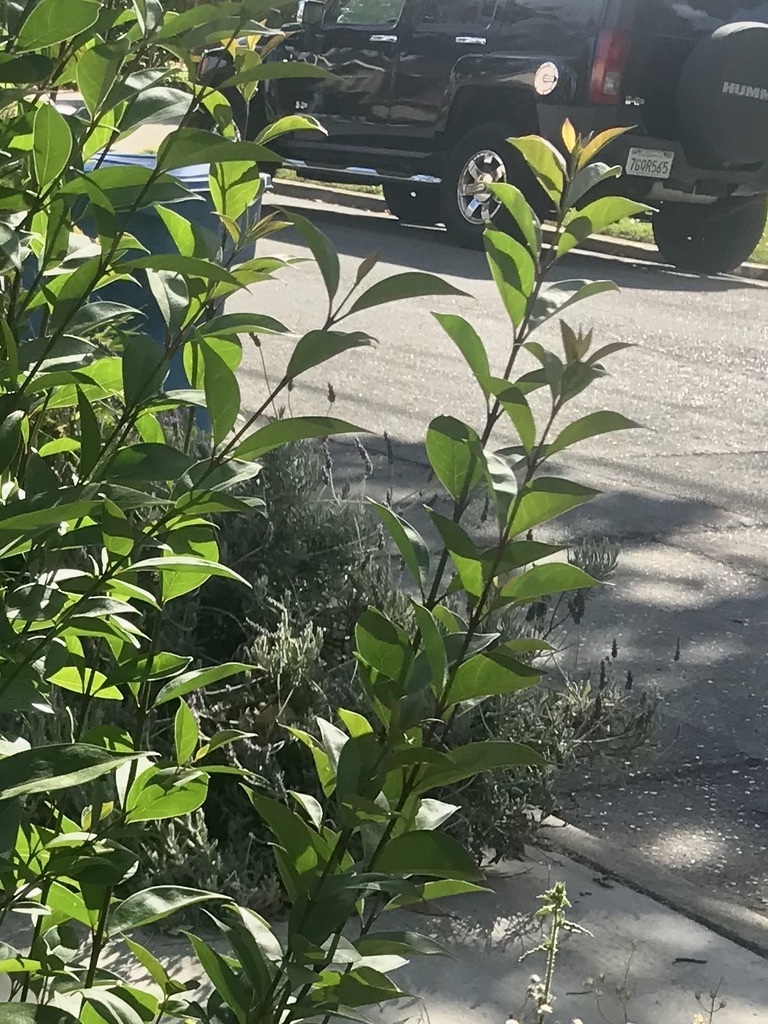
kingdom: Plantae
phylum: Tracheophyta
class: Magnoliopsida
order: Lamiales
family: Oleaceae
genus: Ligustrum
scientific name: Ligustrum lucidum
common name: Glossy privet
